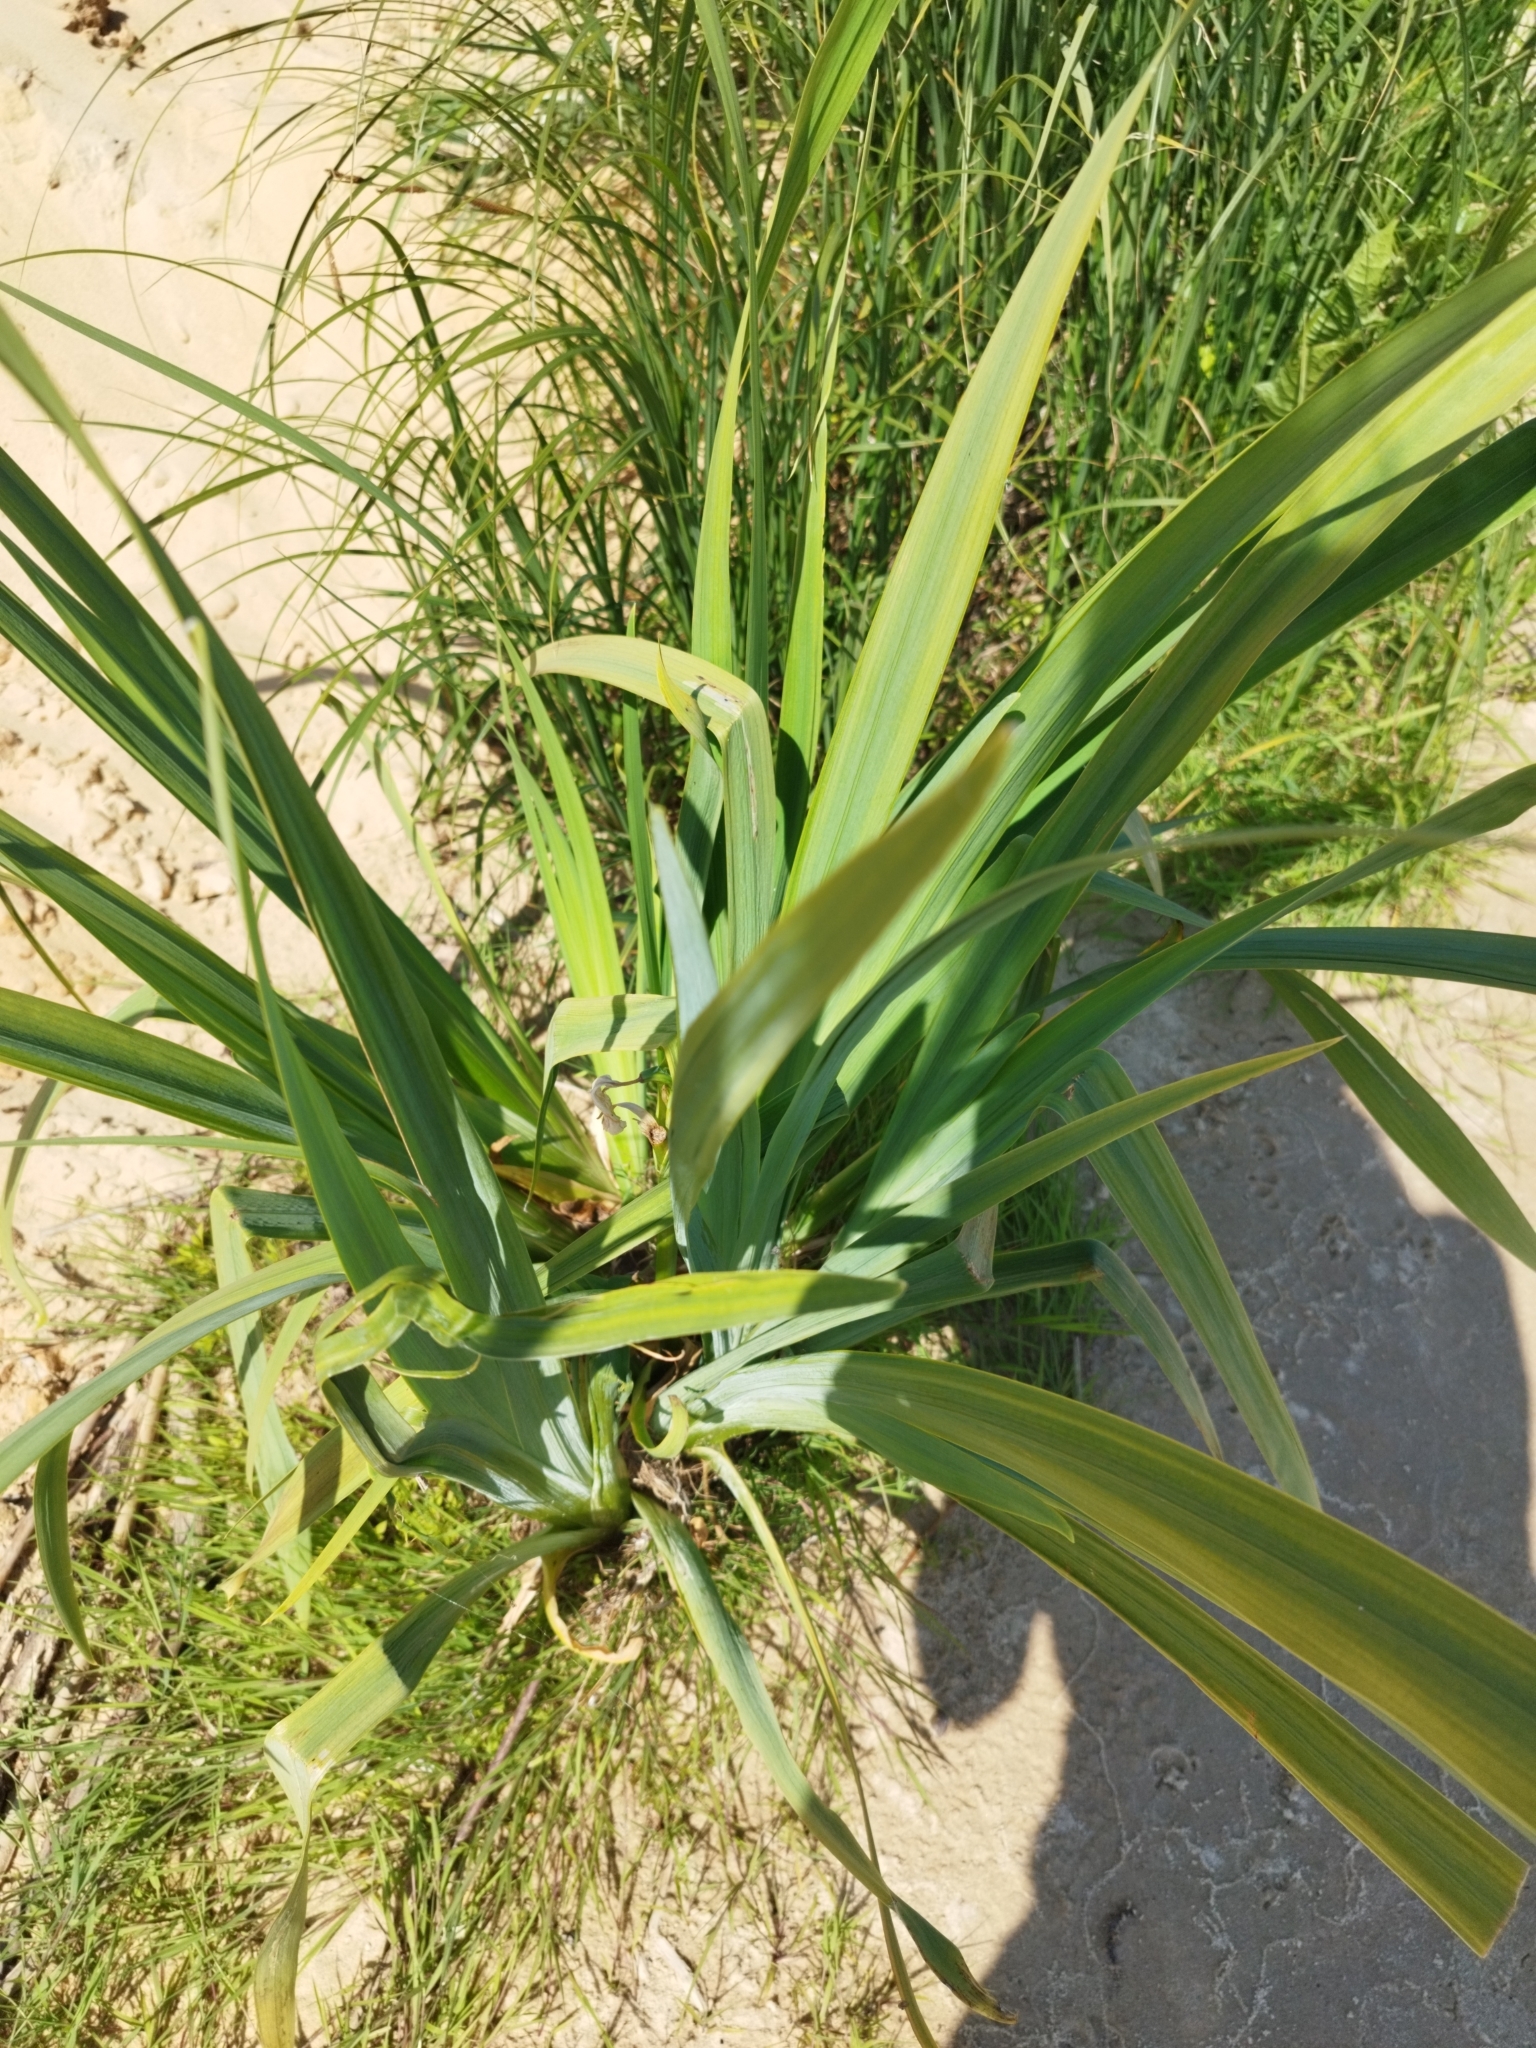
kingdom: Plantae
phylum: Tracheophyta
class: Liliopsida
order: Asparagales
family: Iridaceae
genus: Iris
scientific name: Iris pseudacorus
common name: Yellow flag
